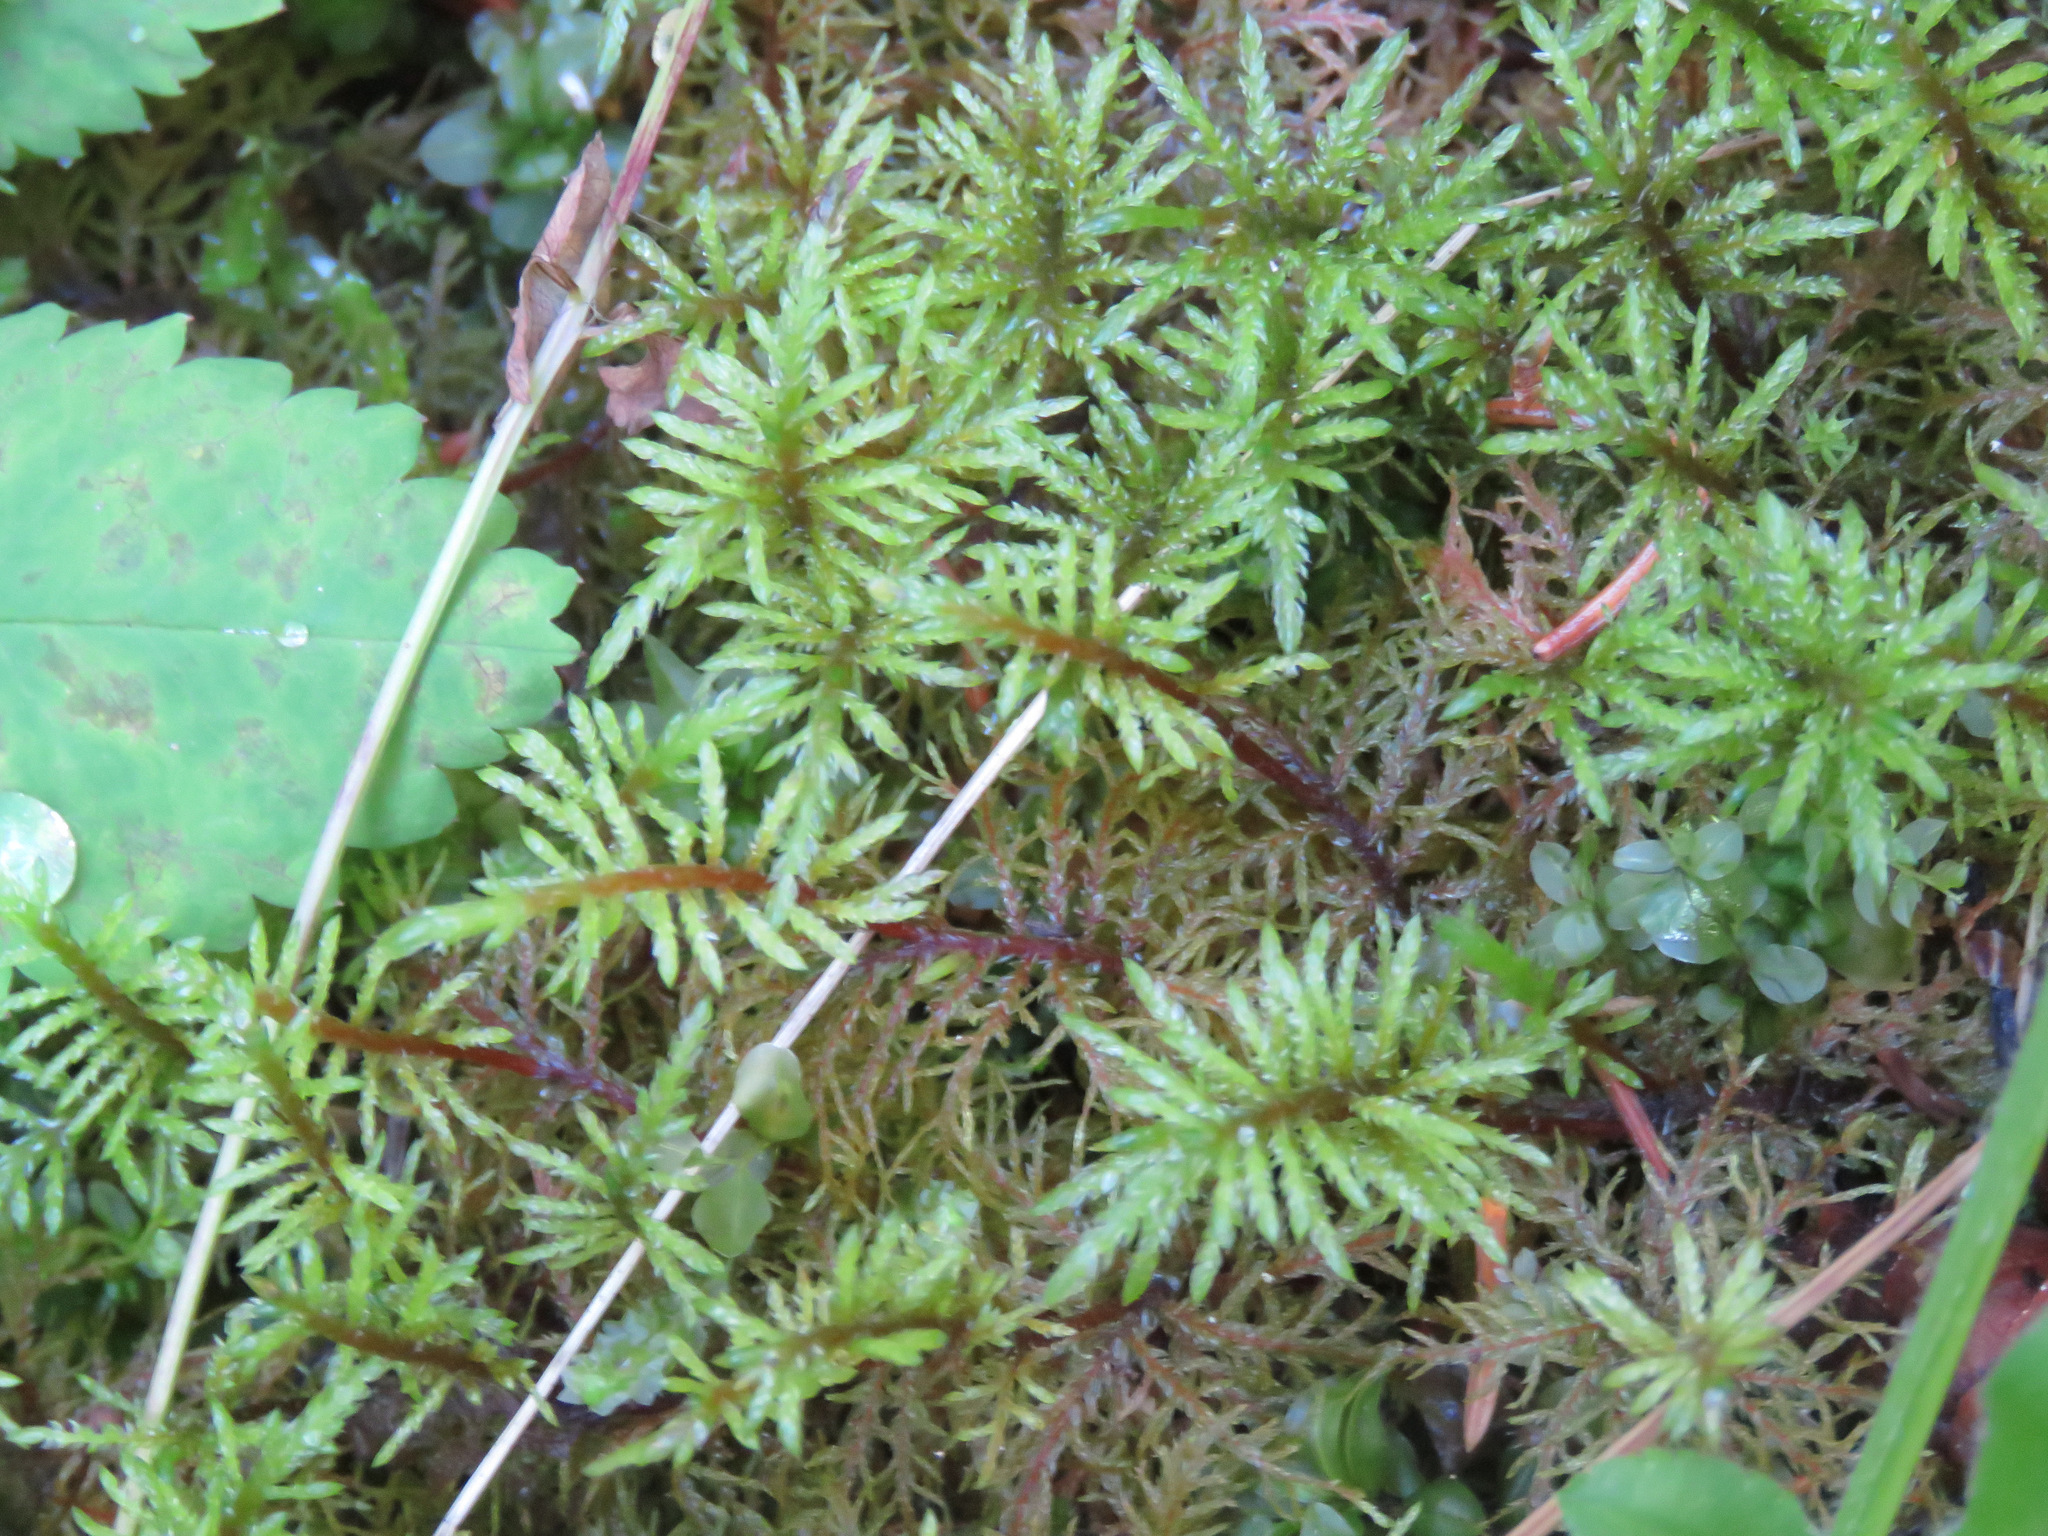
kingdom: Plantae
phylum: Bryophyta
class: Bryopsida
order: Hypnales
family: Hylocomiaceae
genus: Hylocomium
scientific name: Hylocomium splendens
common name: Stairstep moss
